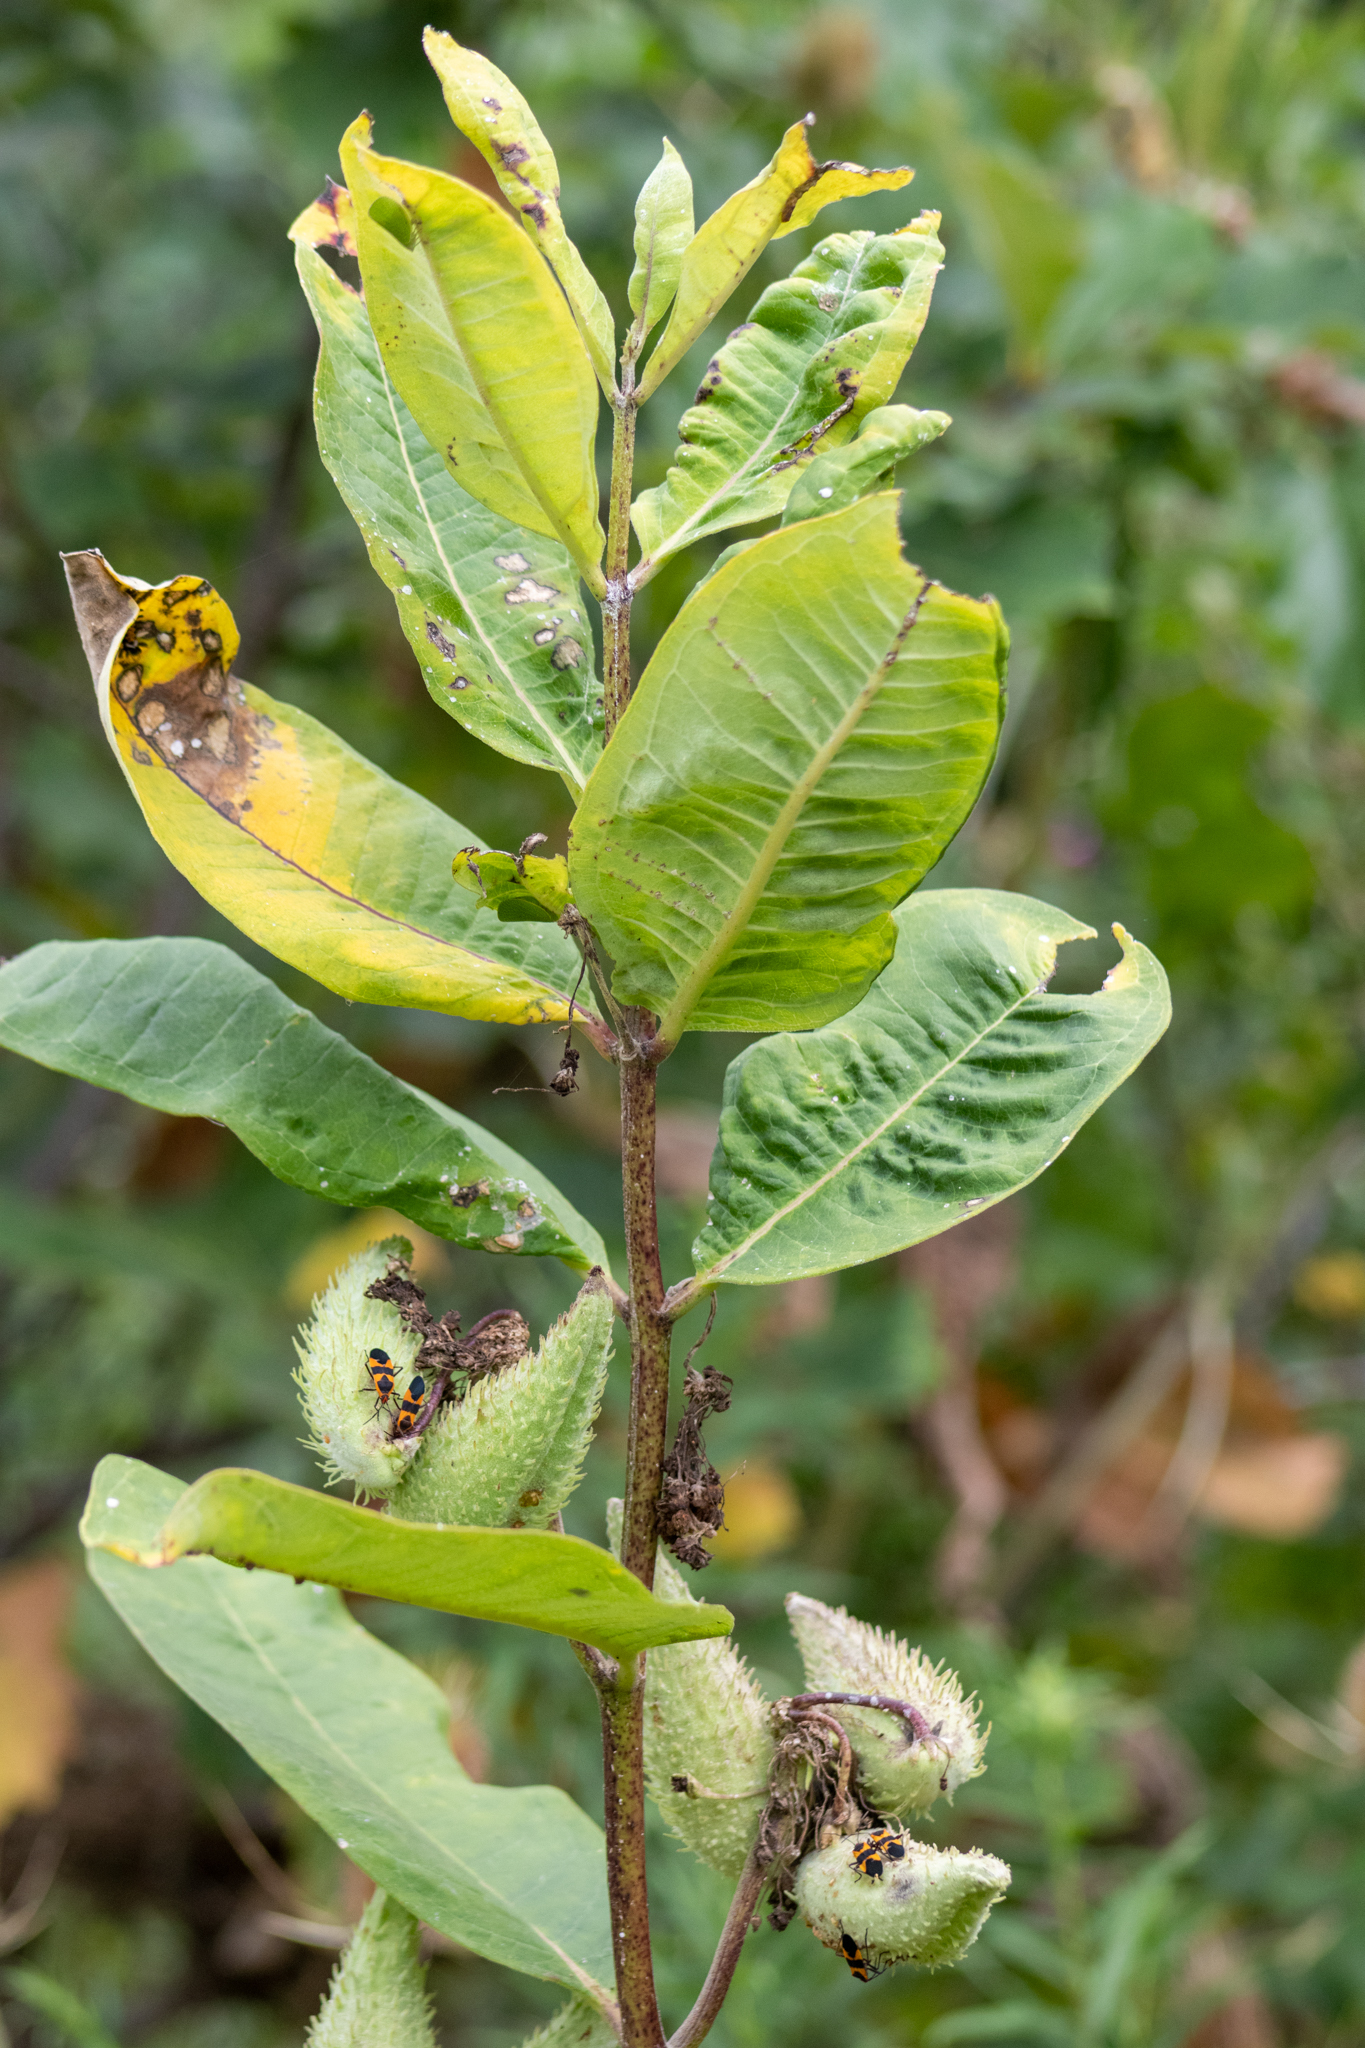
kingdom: Plantae
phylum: Tracheophyta
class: Magnoliopsida
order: Gentianales
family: Apocynaceae
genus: Asclepias
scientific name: Asclepias syriaca
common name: Common milkweed
